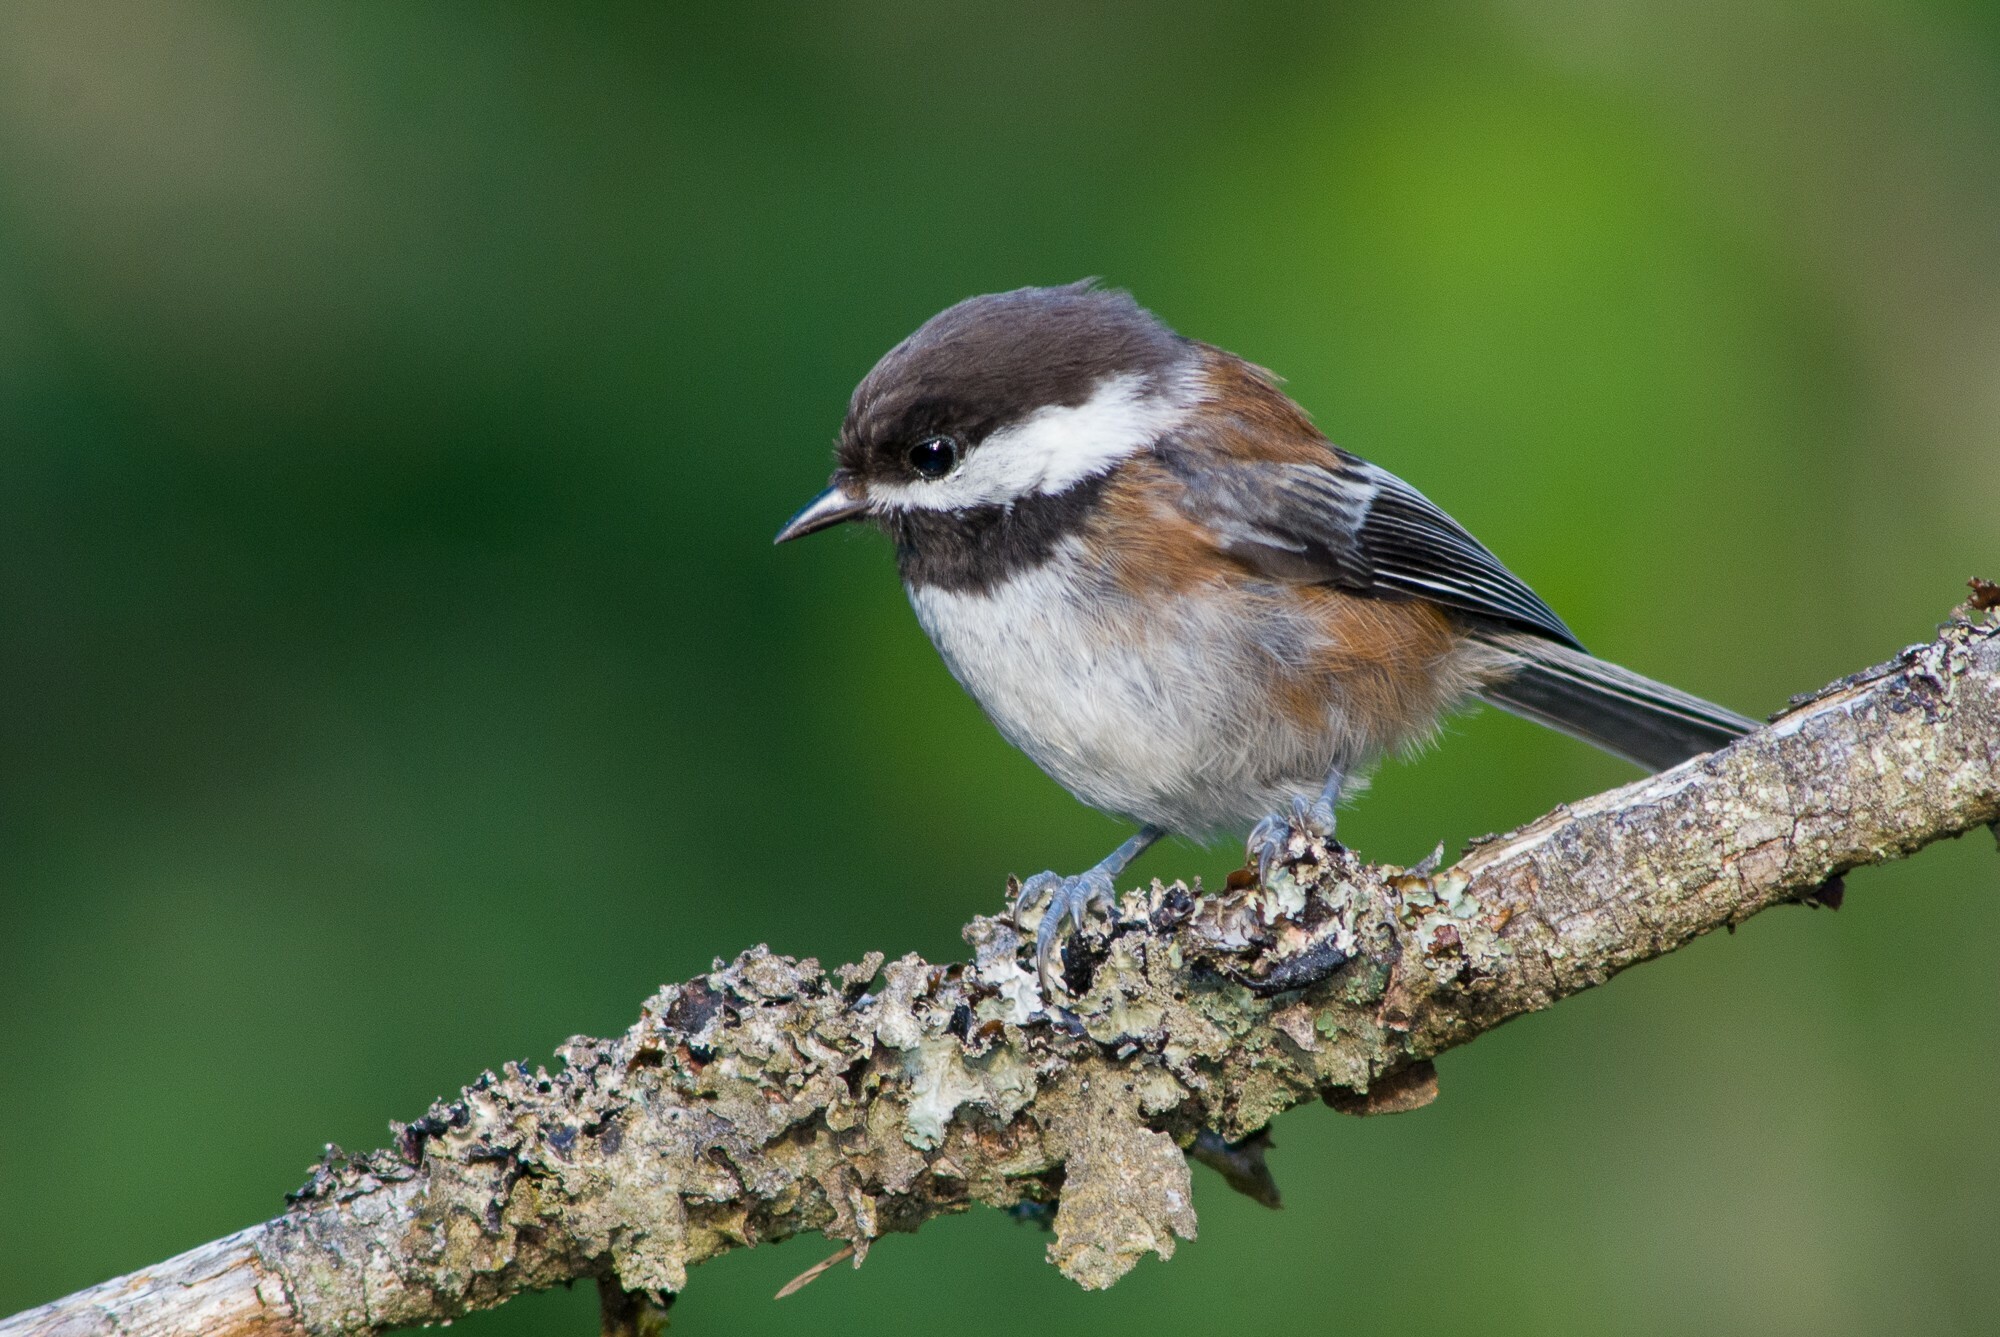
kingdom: Animalia
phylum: Chordata
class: Aves
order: Passeriformes
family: Paridae
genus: Poecile
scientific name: Poecile rufescens
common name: Chestnut-backed chickadee
